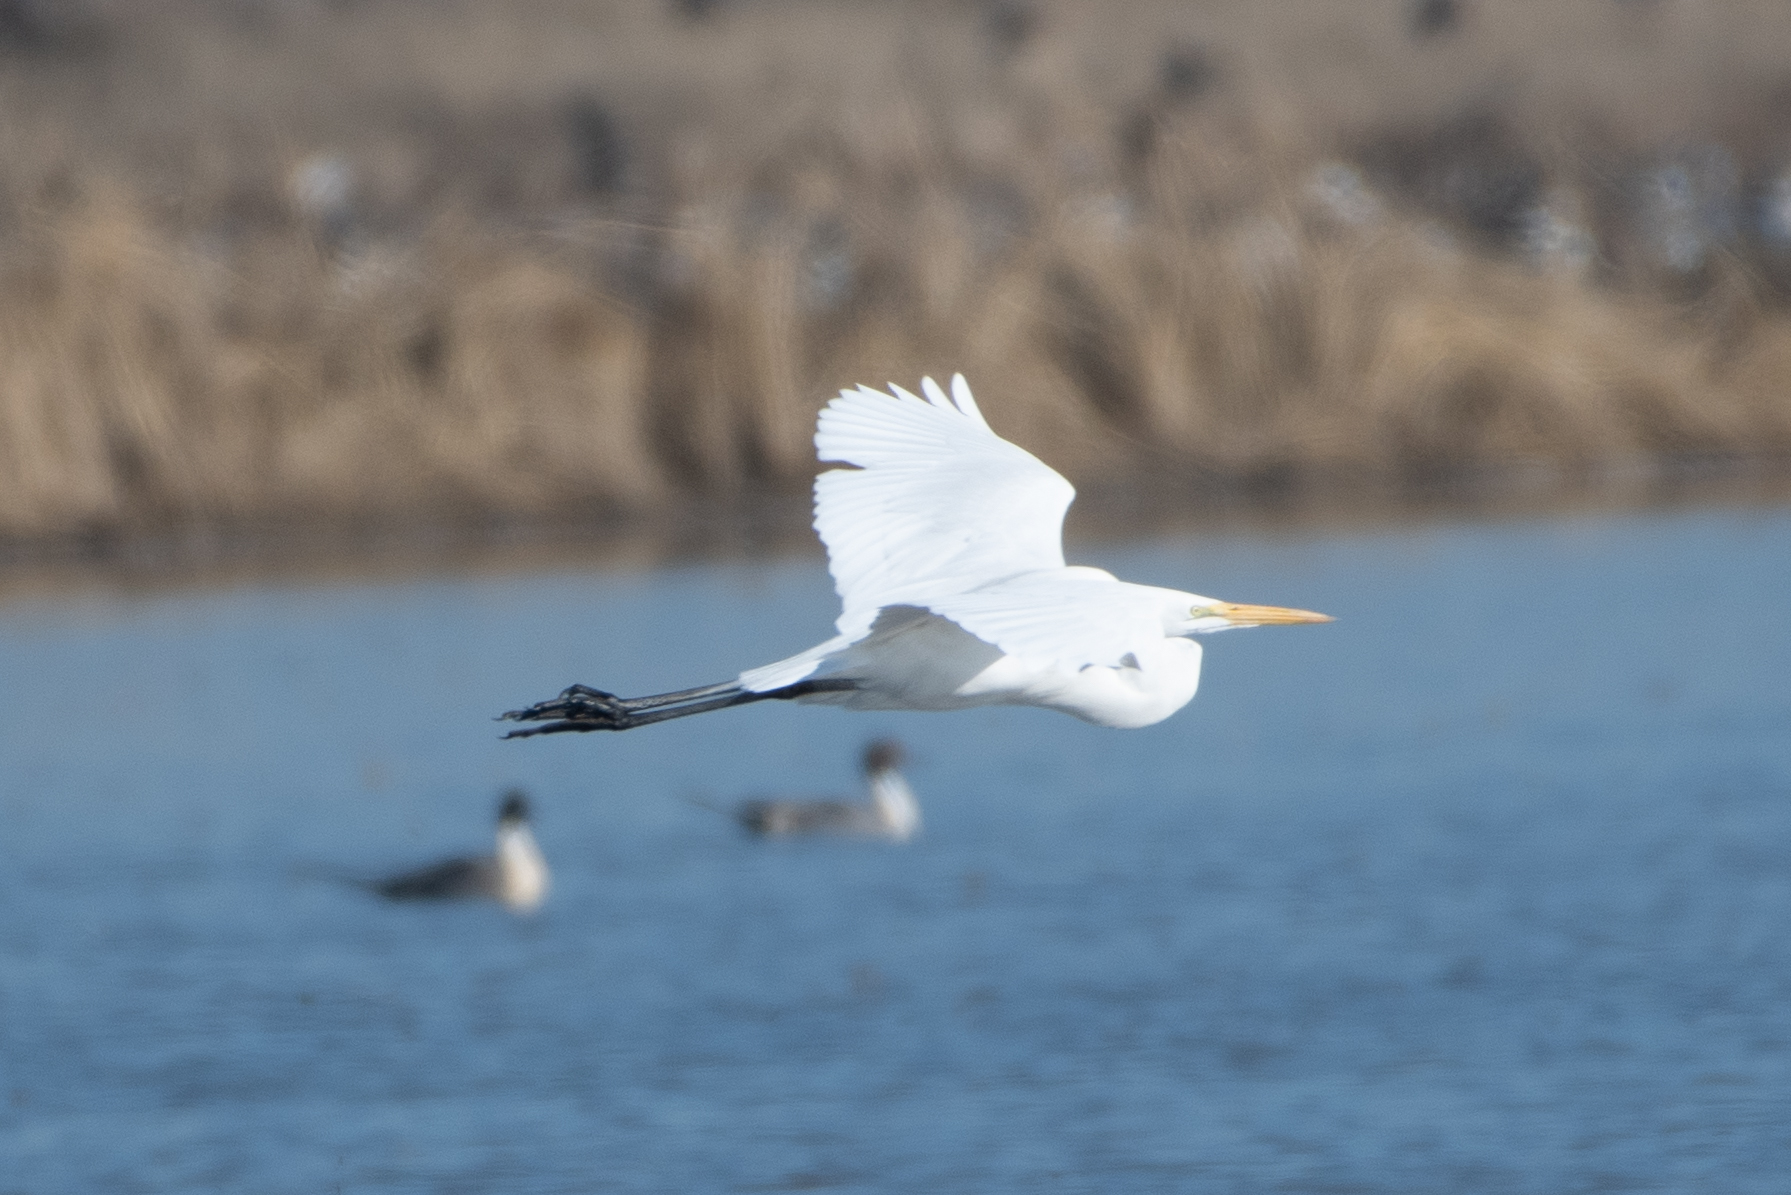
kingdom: Animalia
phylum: Chordata
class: Aves
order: Pelecaniformes
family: Ardeidae
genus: Ardea
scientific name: Ardea alba
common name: Great egret
